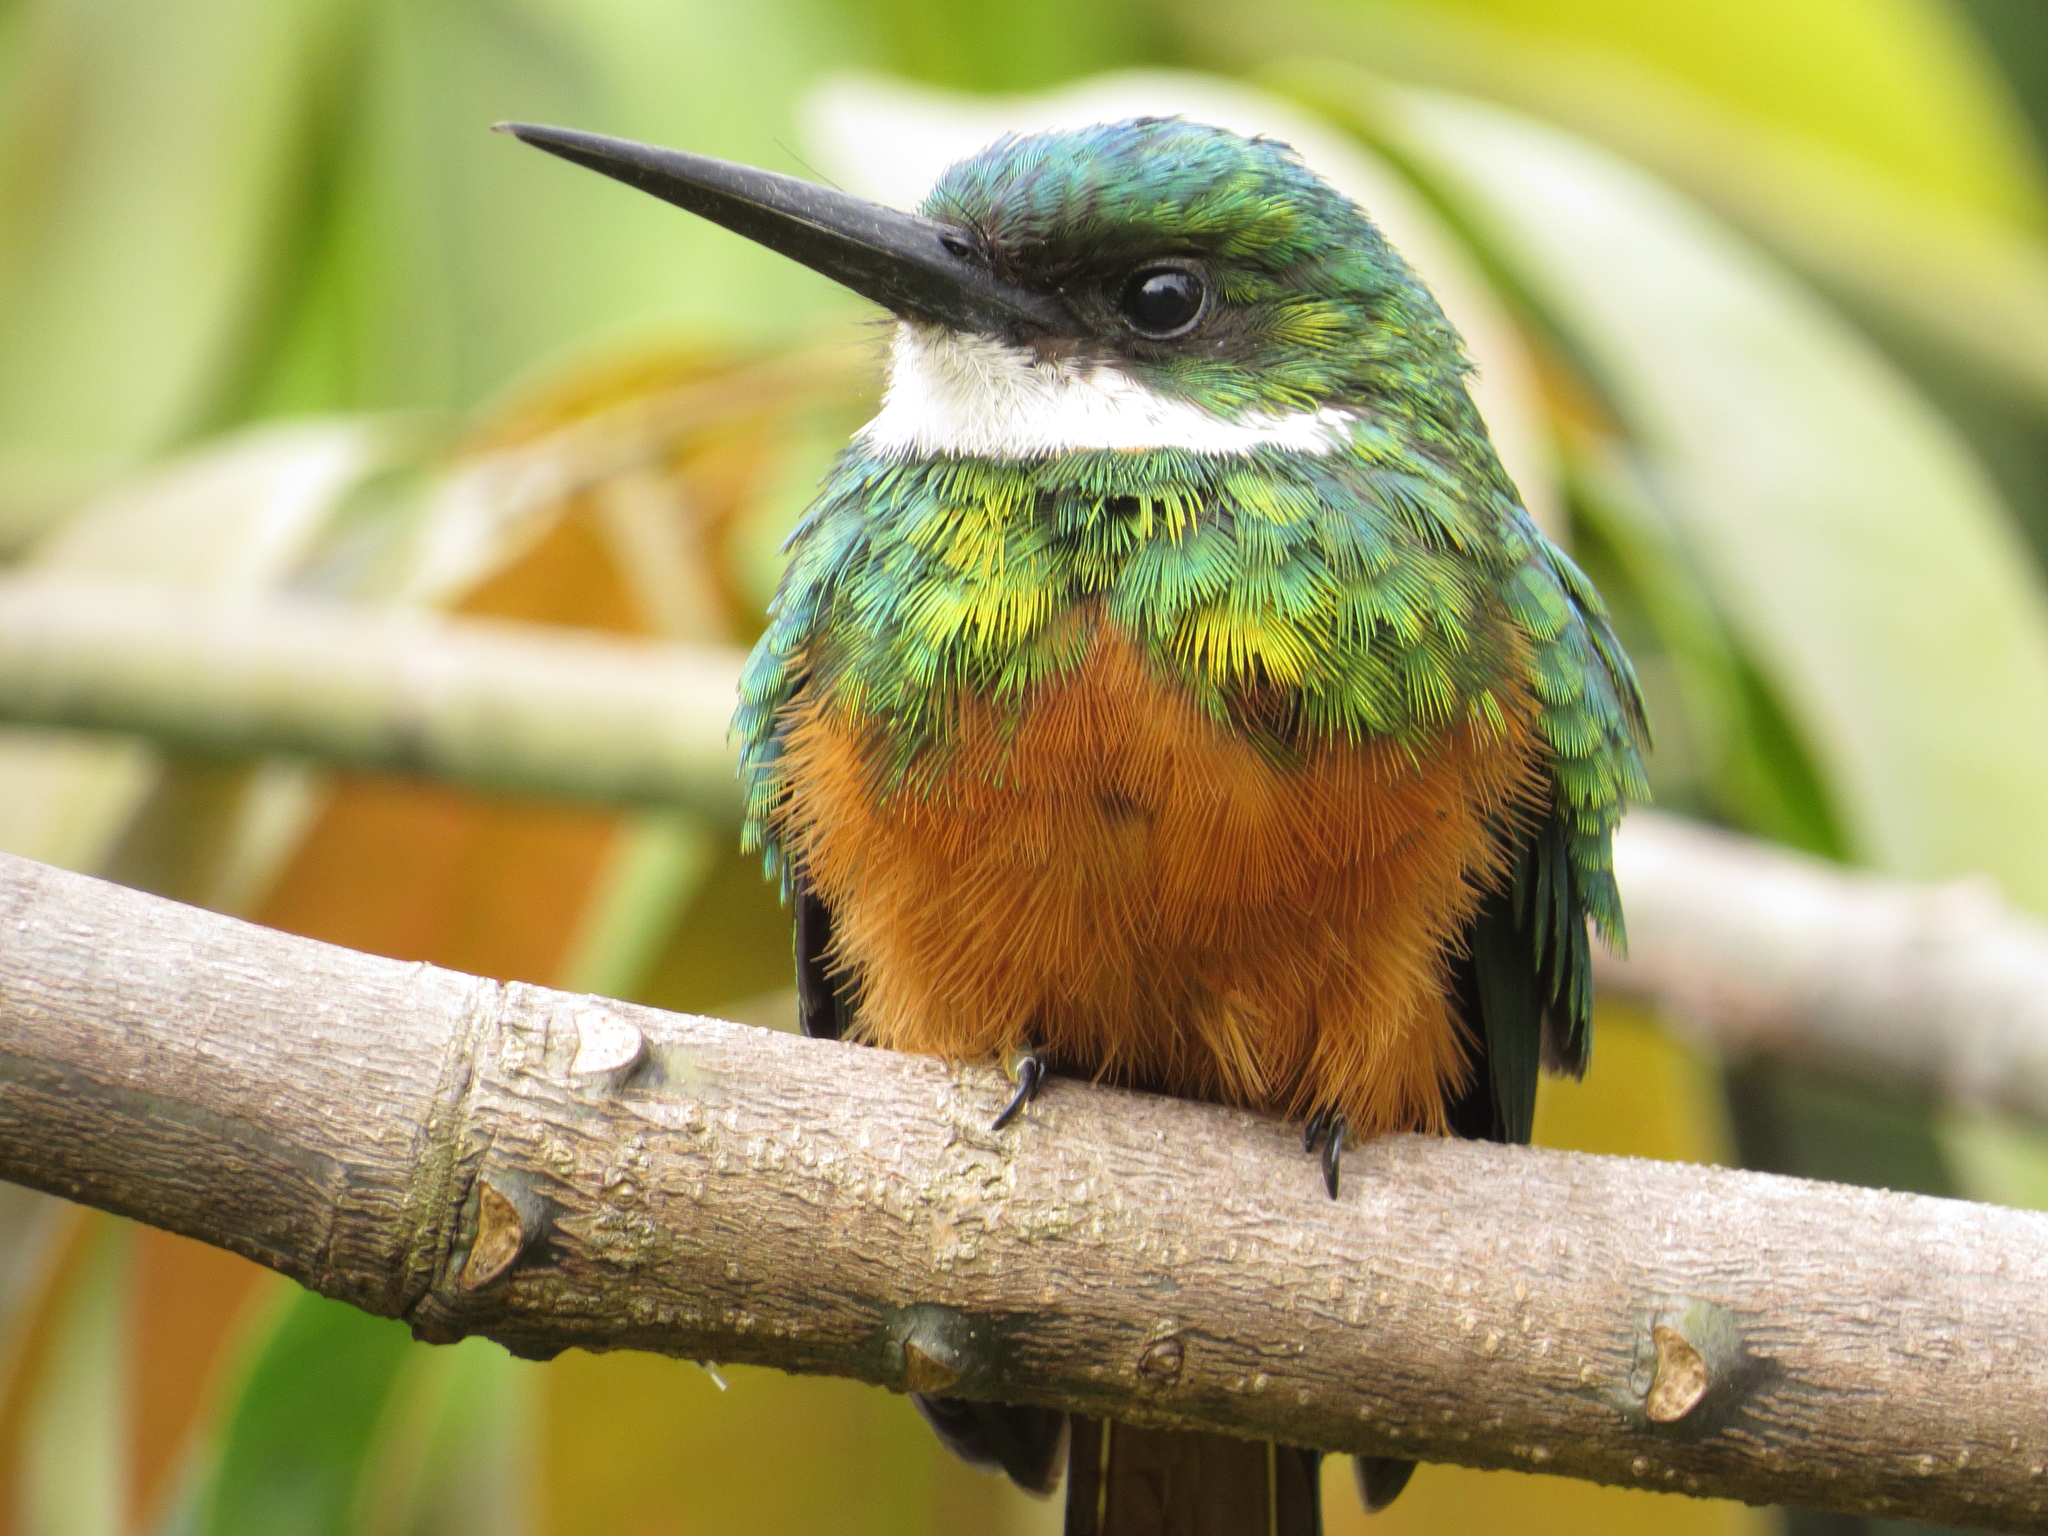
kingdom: Animalia
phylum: Chordata
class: Aves
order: Piciformes
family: Galbulidae
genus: Galbula
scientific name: Galbula ruficauda
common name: Rufous-tailed jacamar
